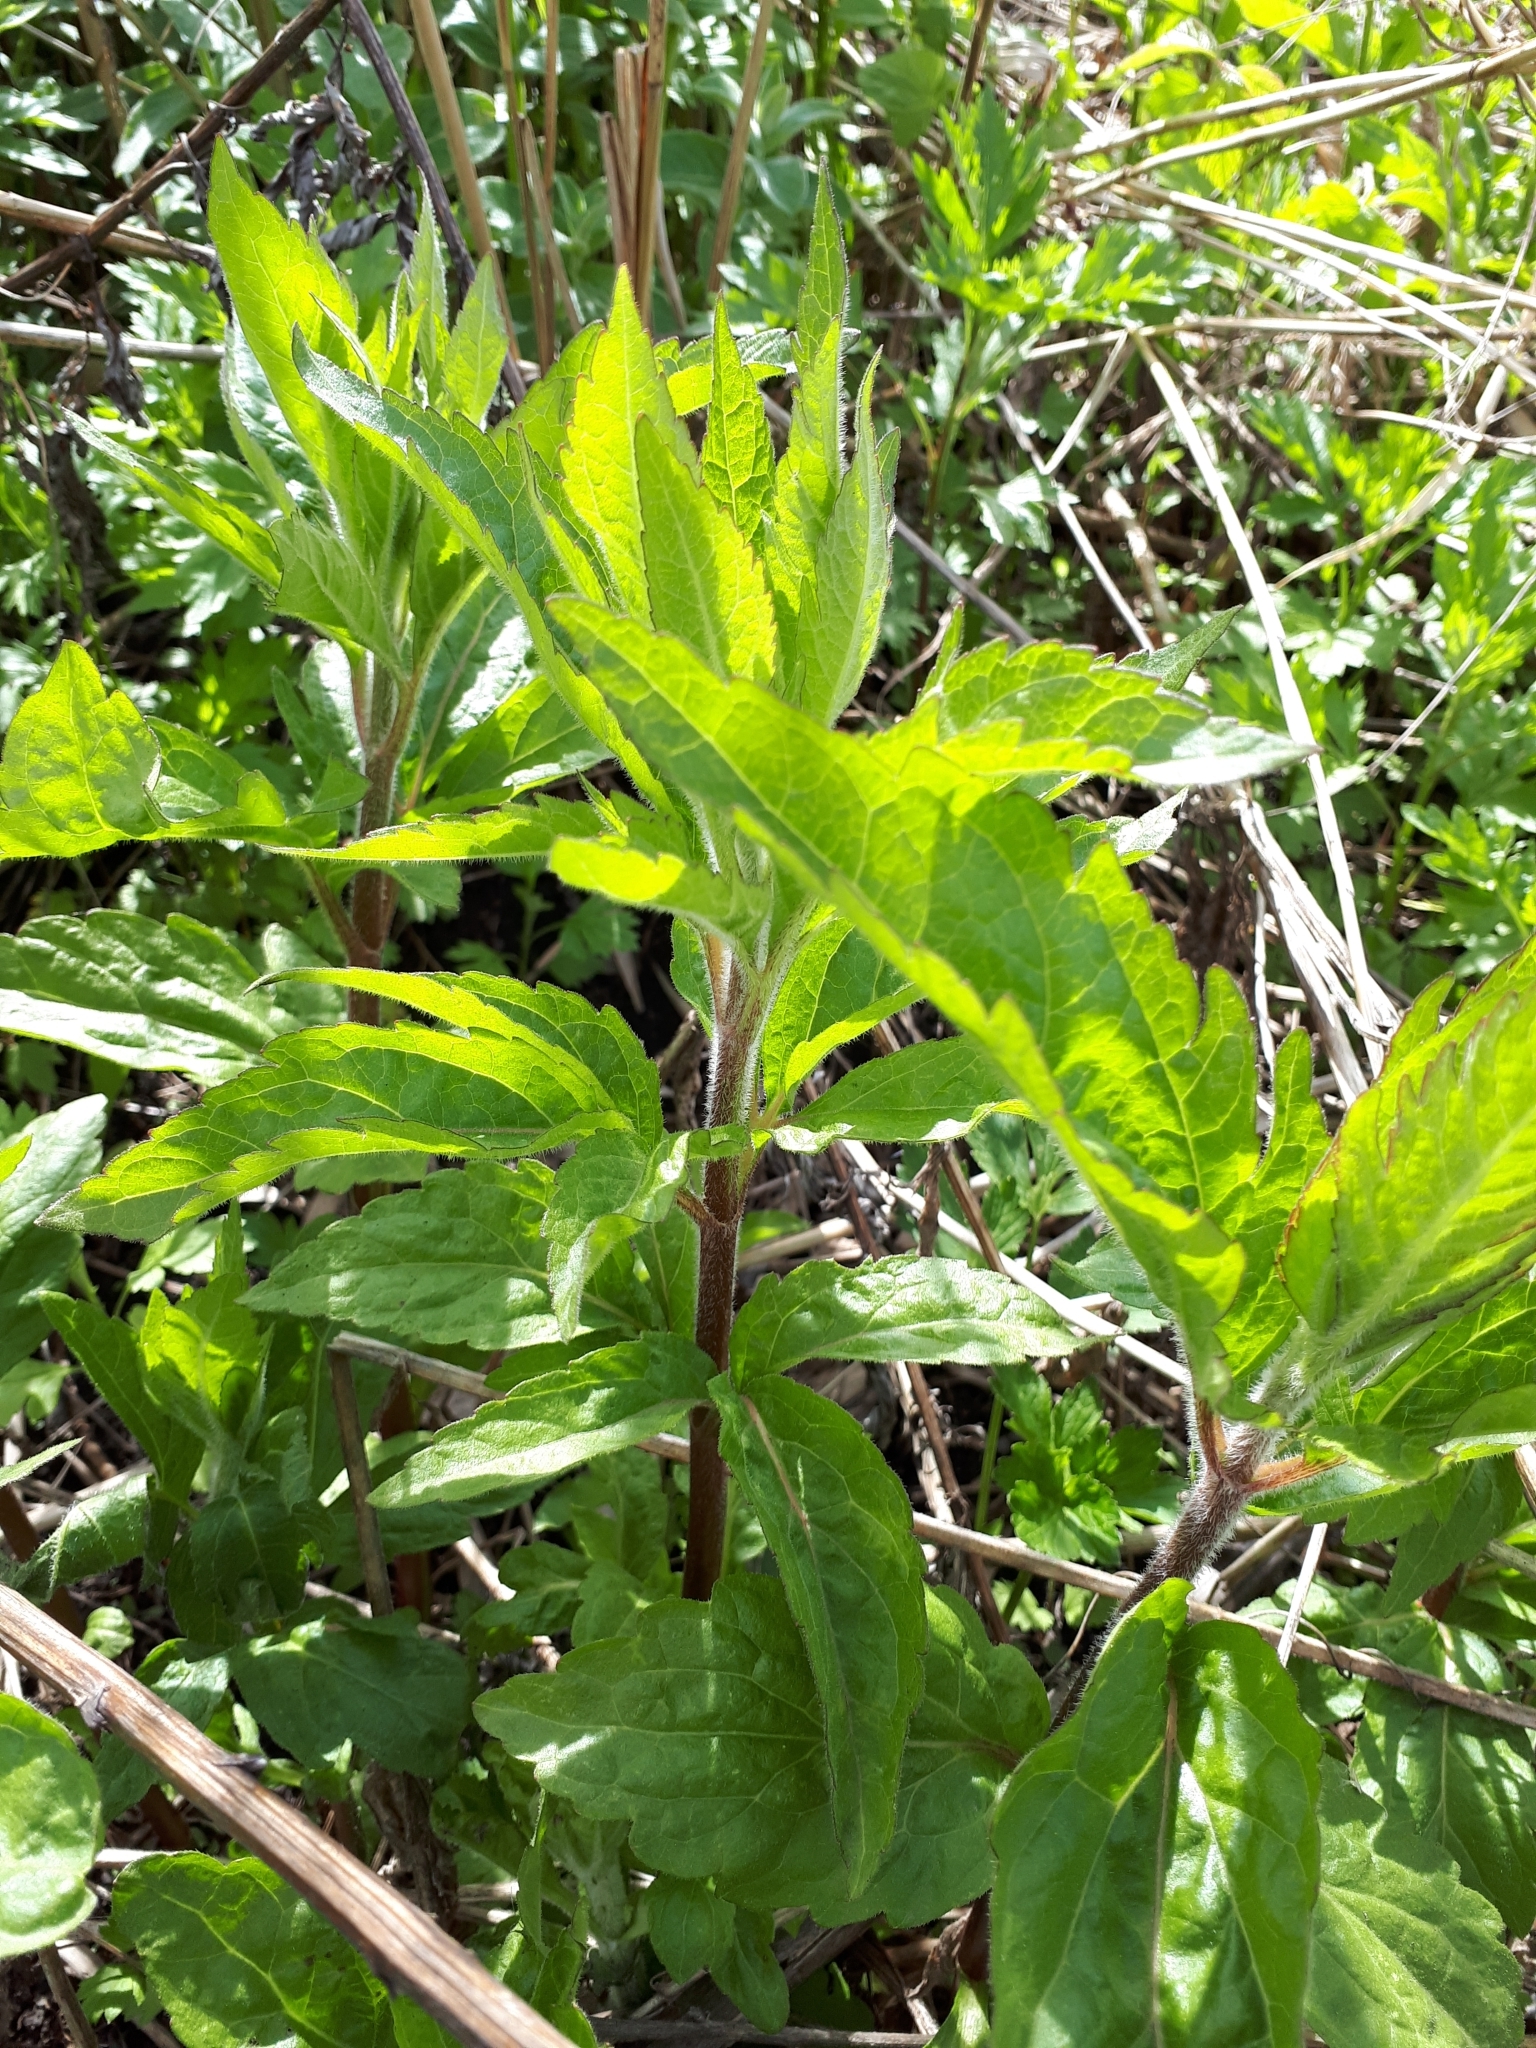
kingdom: Plantae
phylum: Tracheophyta
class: Magnoliopsida
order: Asterales
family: Asteraceae
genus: Eupatorium
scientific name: Eupatorium cannabinum
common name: Hemp-agrimony
